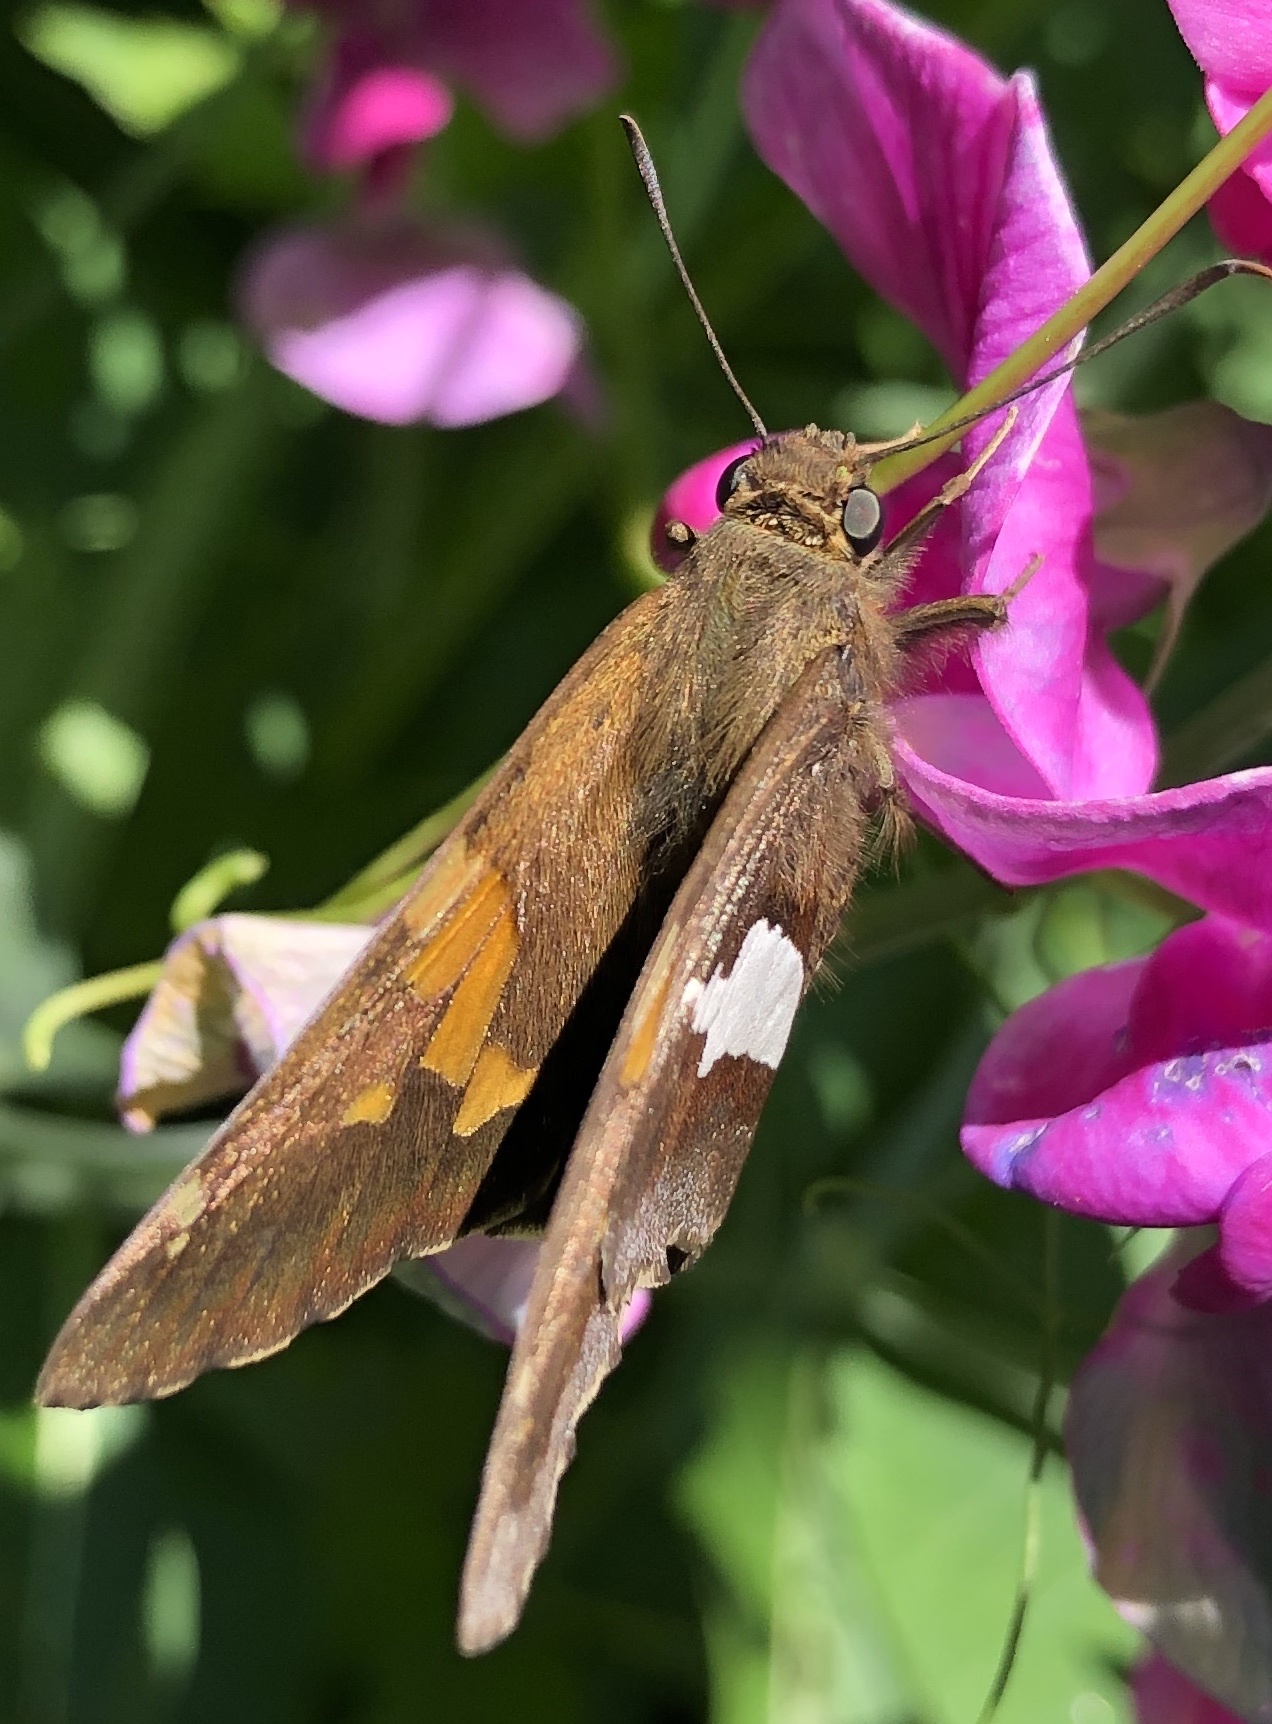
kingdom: Animalia
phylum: Arthropoda
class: Insecta
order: Lepidoptera
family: Hesperiidae
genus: Epargyreus
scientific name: Epargyreus clarus
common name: Silver-spotted skipper
